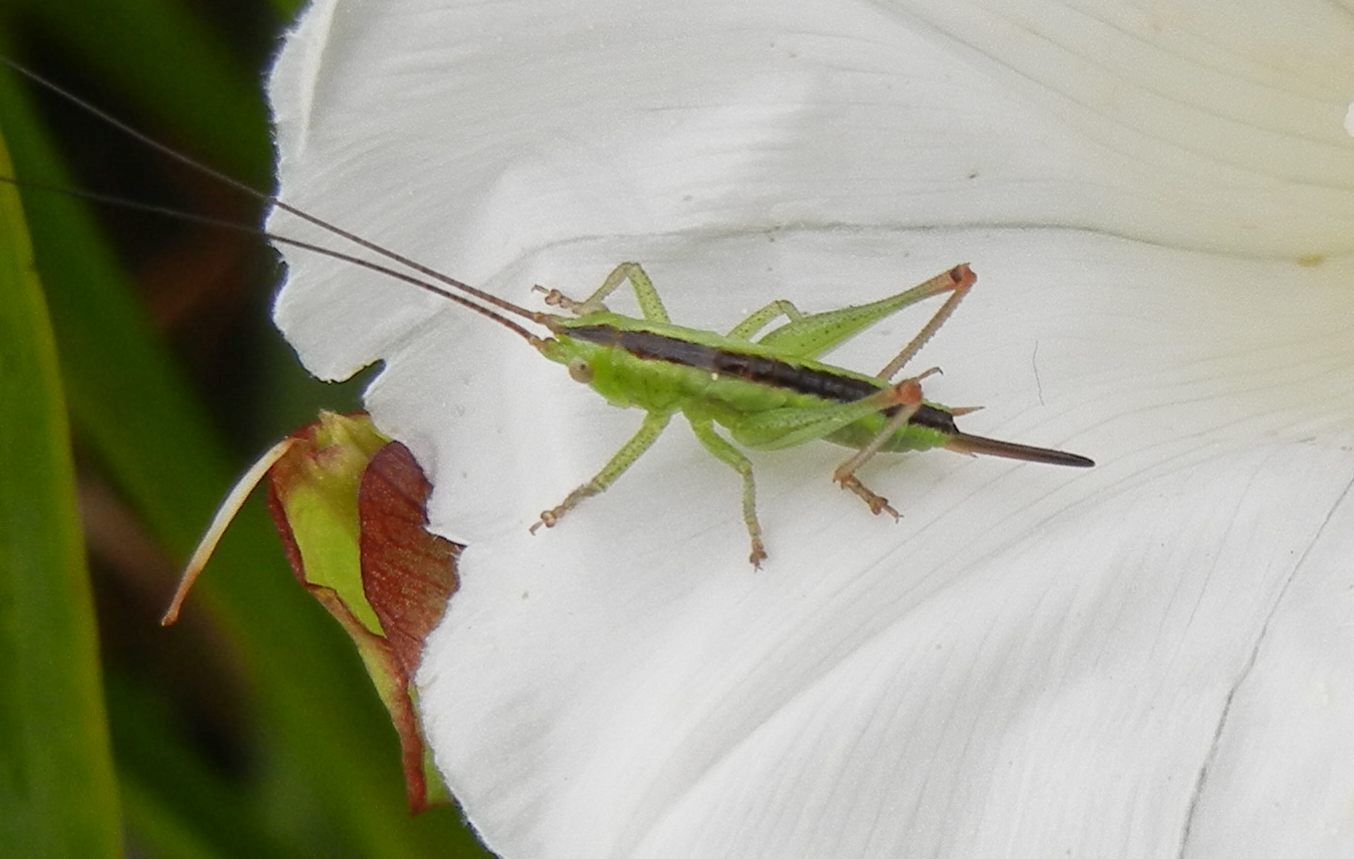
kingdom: Animalia
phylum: Arthropoda
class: Insecta
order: Orthoptera
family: Tettigoniidae
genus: Conocephalus
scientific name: Conocephalus fuscus
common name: Long-winged conehead
